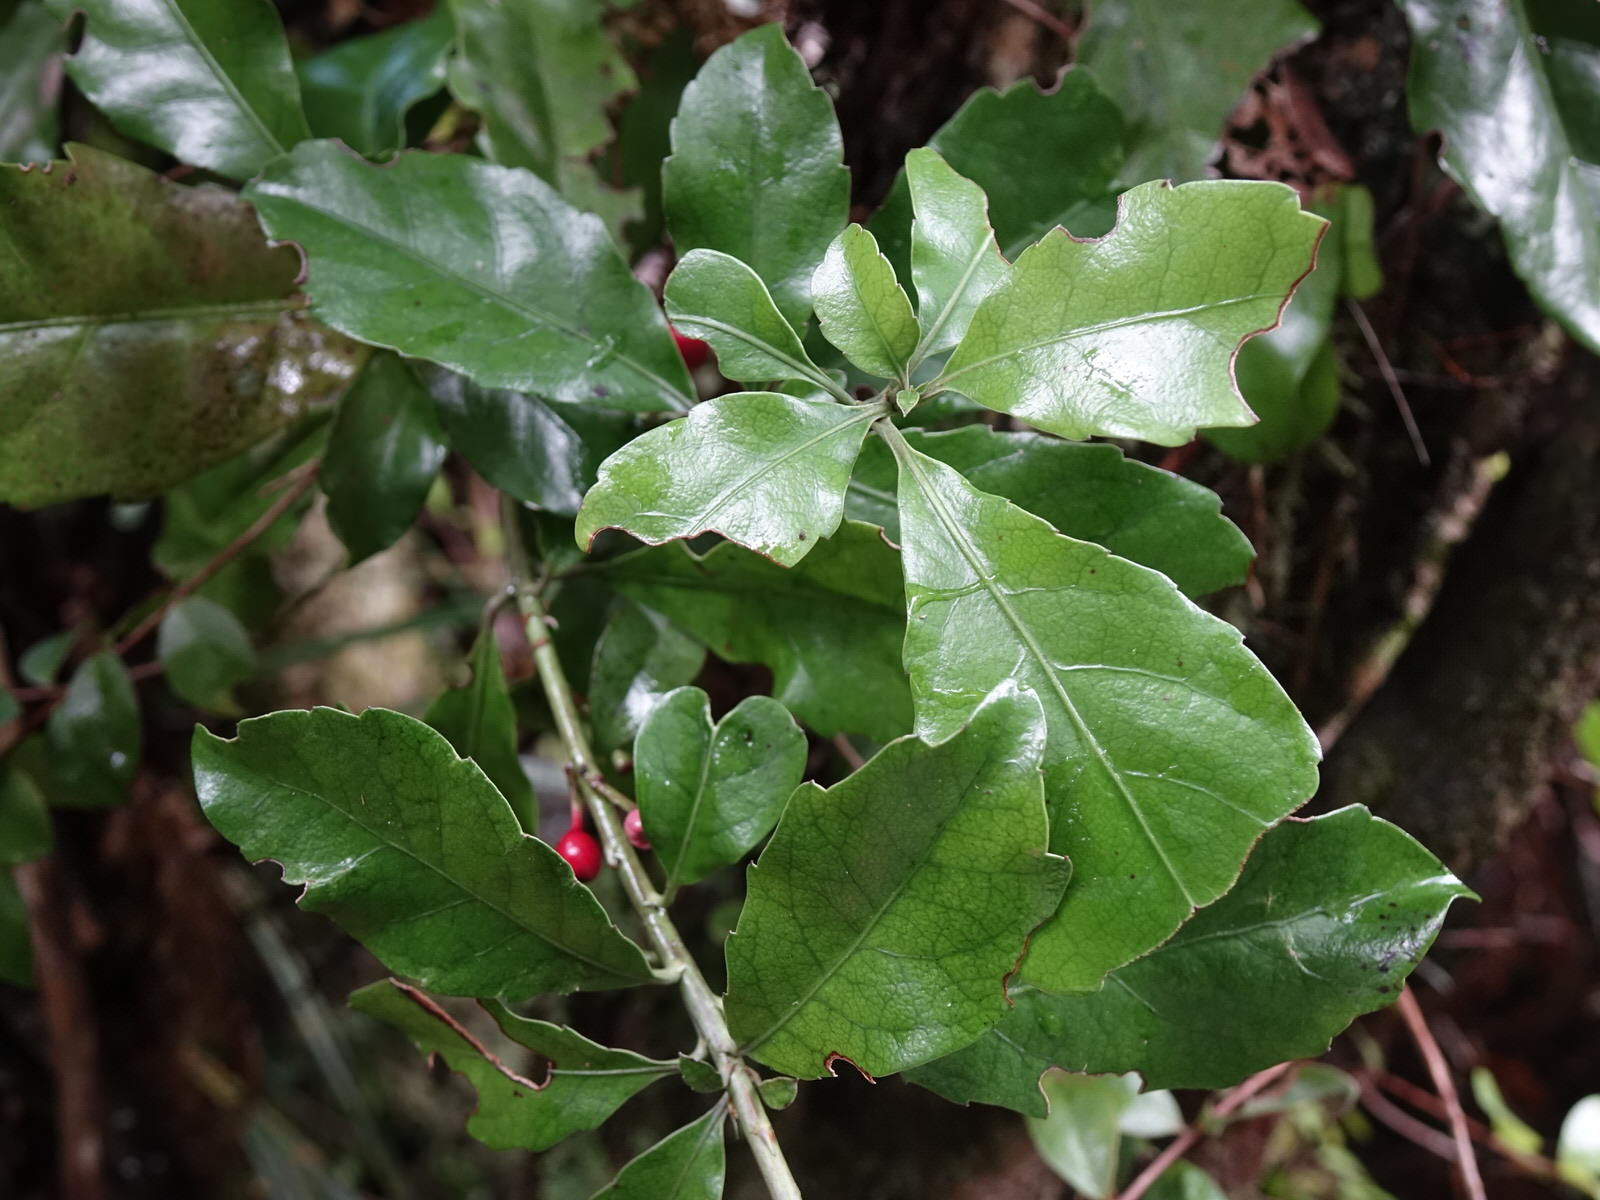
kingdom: Plantae
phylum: Tracheophyta
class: Magnoliopsida
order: Asterales
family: Alseuosmiaceae
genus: Alseuosmia
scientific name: Alseuosmia macrophylla
